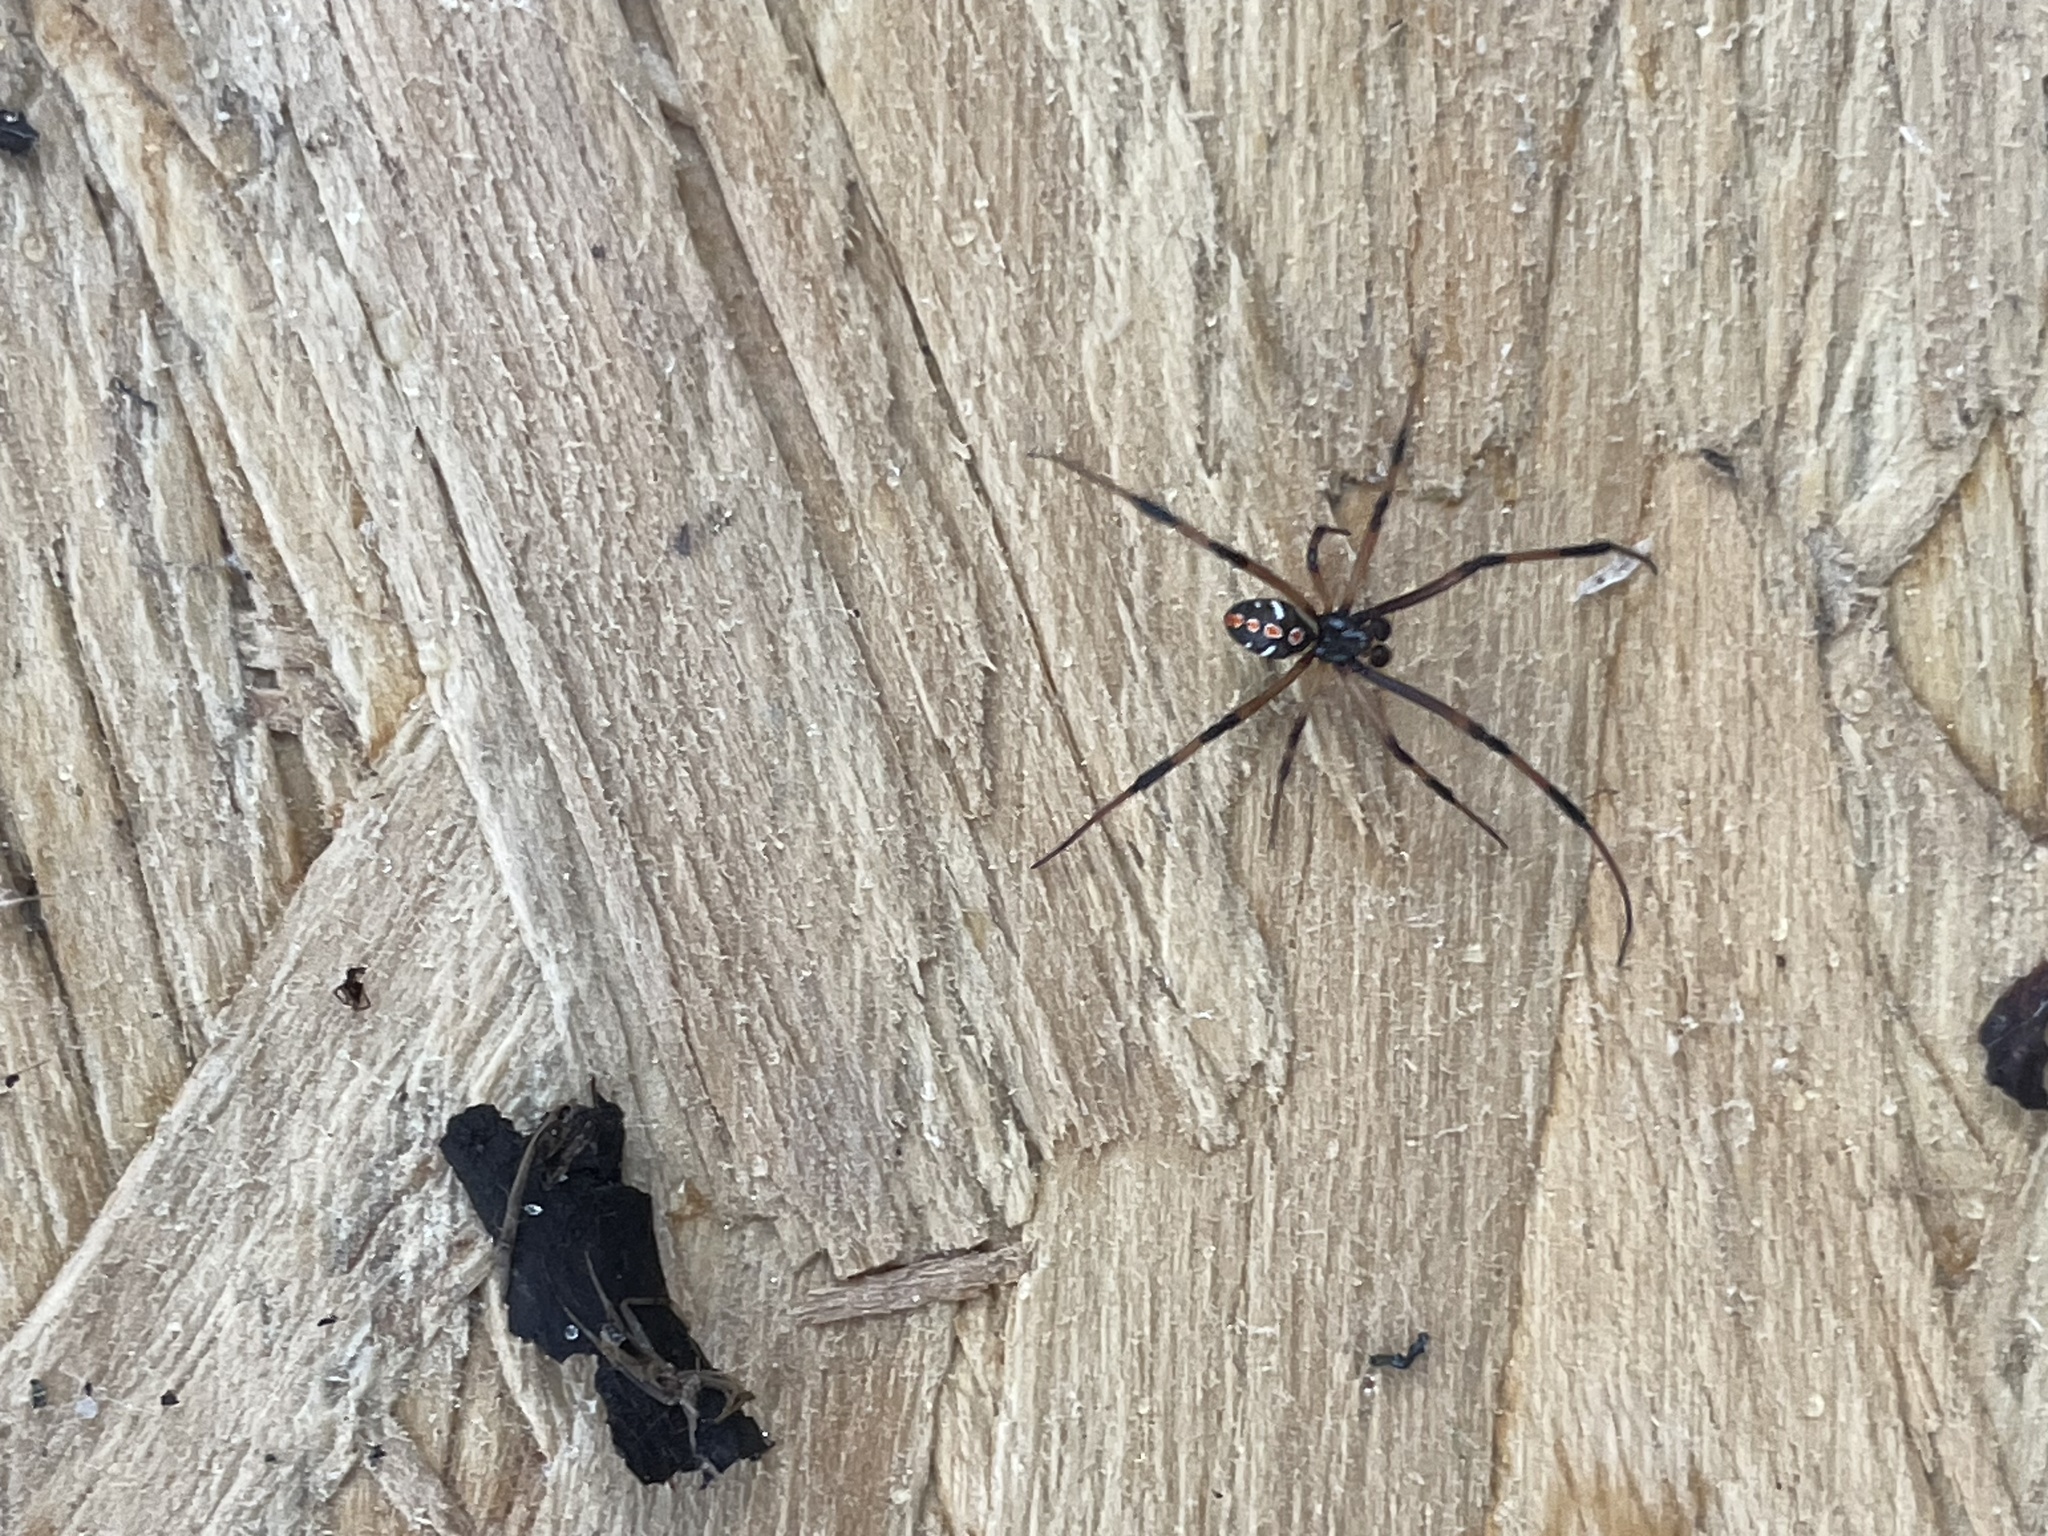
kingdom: Animalia
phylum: Arthropoda
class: Arachnida
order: Araneae
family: Theridiidae
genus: Latrodectus
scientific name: Latrodectus mactans
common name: Cobweb spiders
